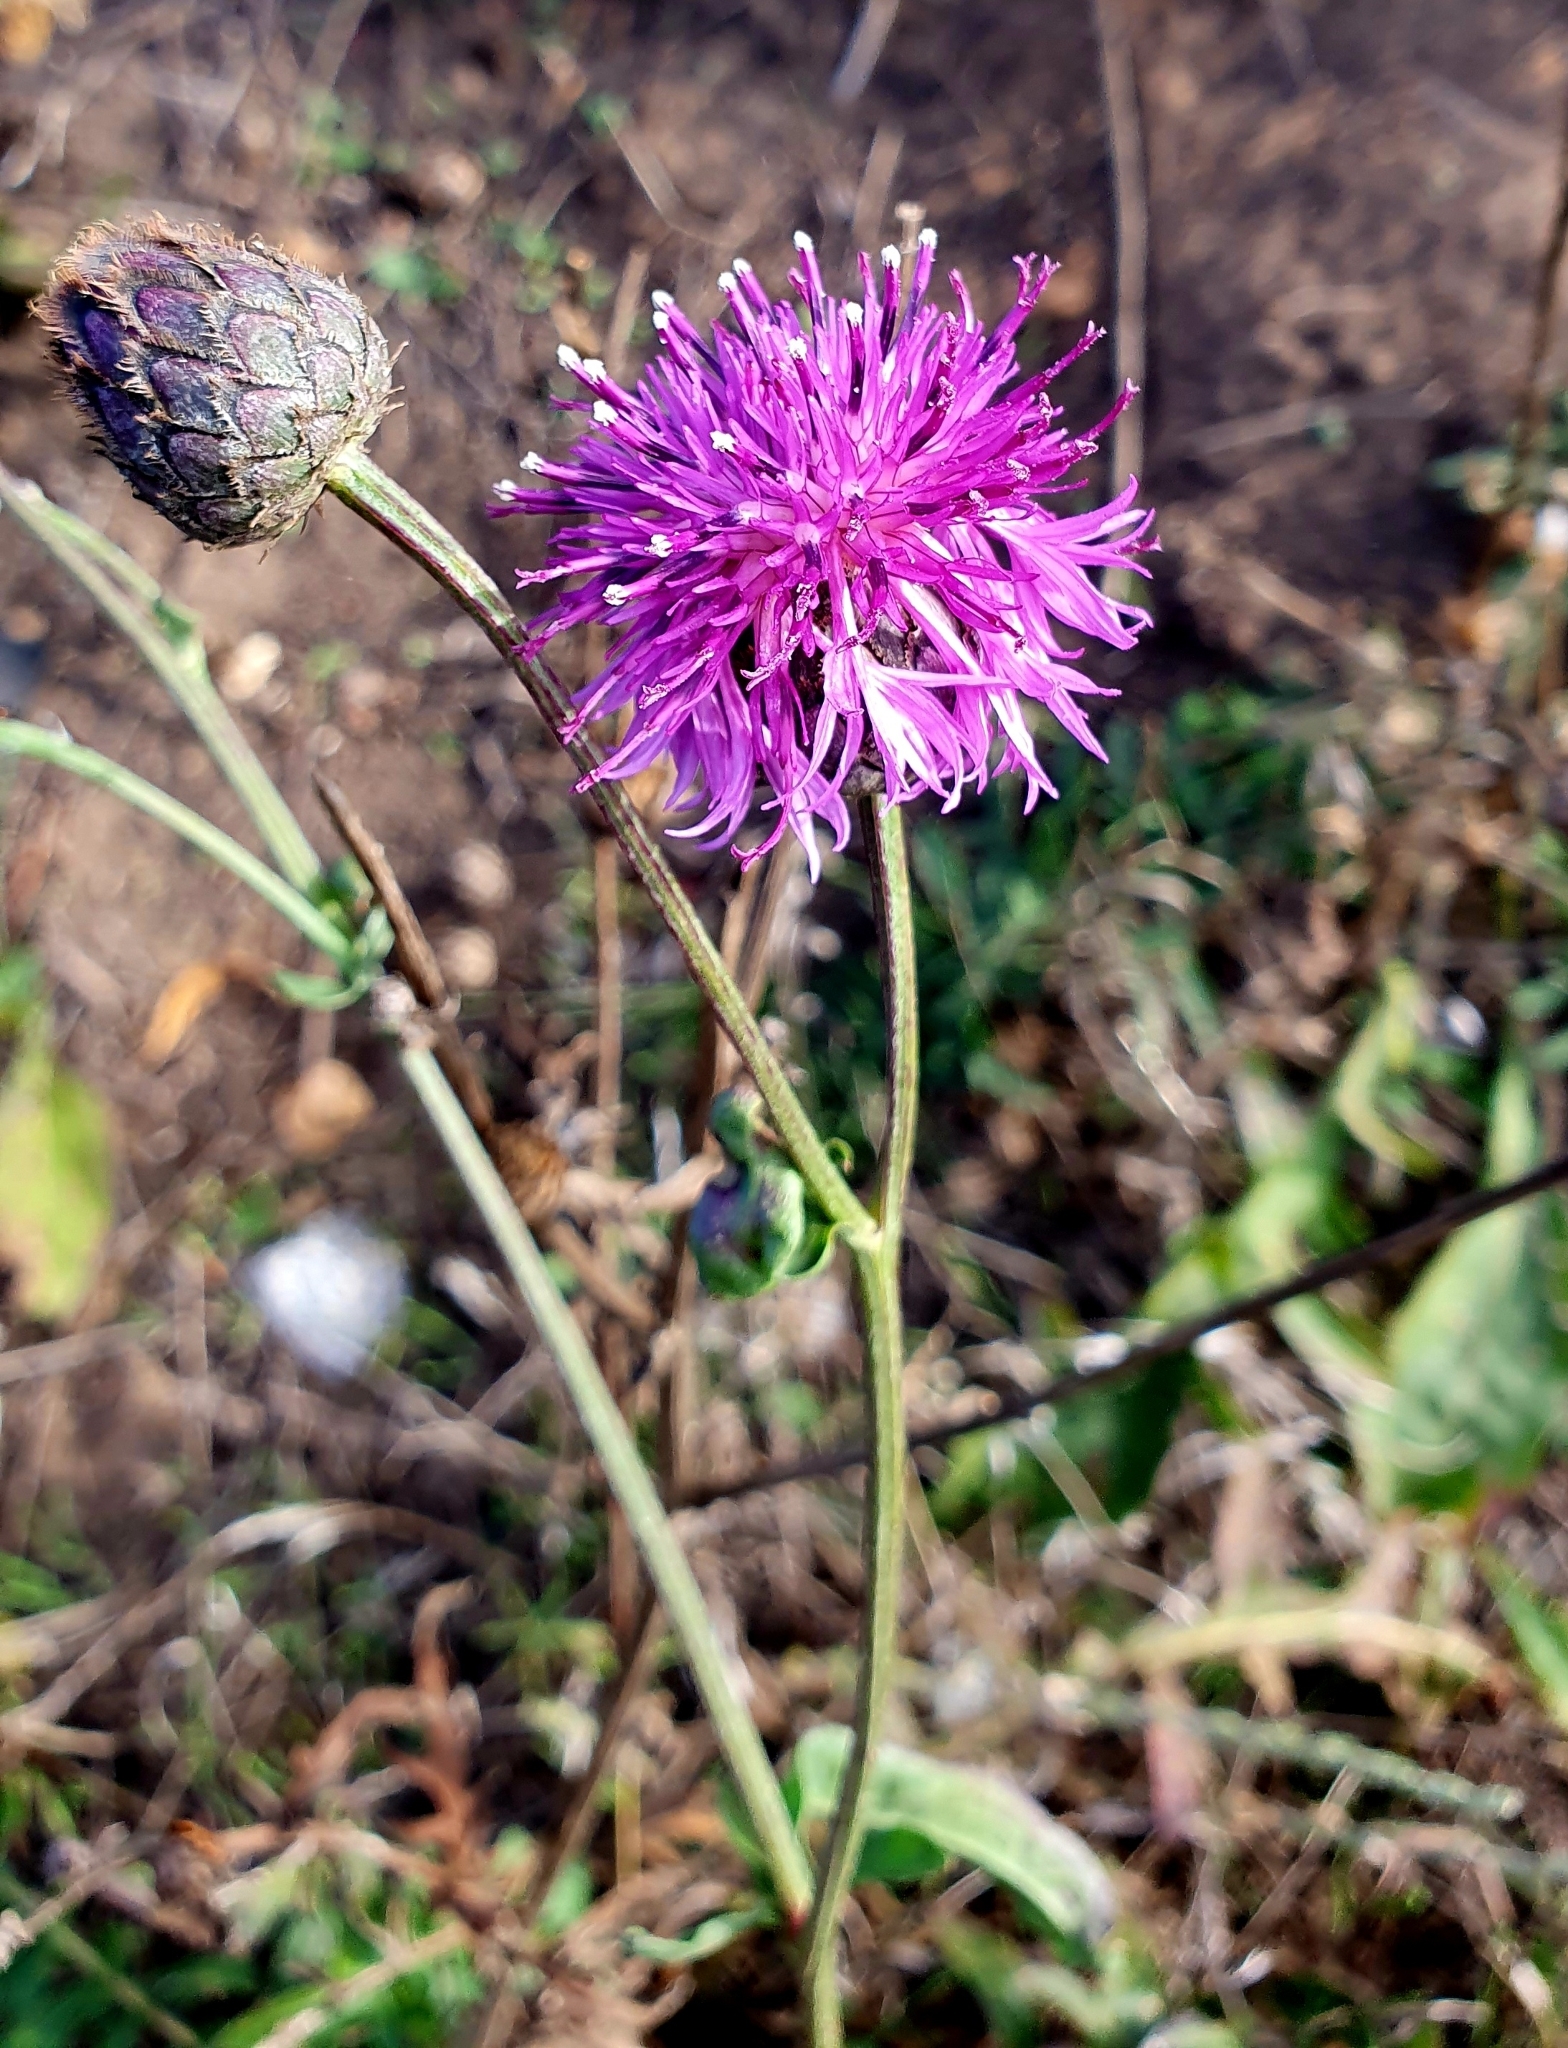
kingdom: Plantae
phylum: Tracheophyta
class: Magnoliopsida
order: Asterales
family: Asteraceae
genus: Centaurea
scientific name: Centaurea scabiosa
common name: Greater knapweed
